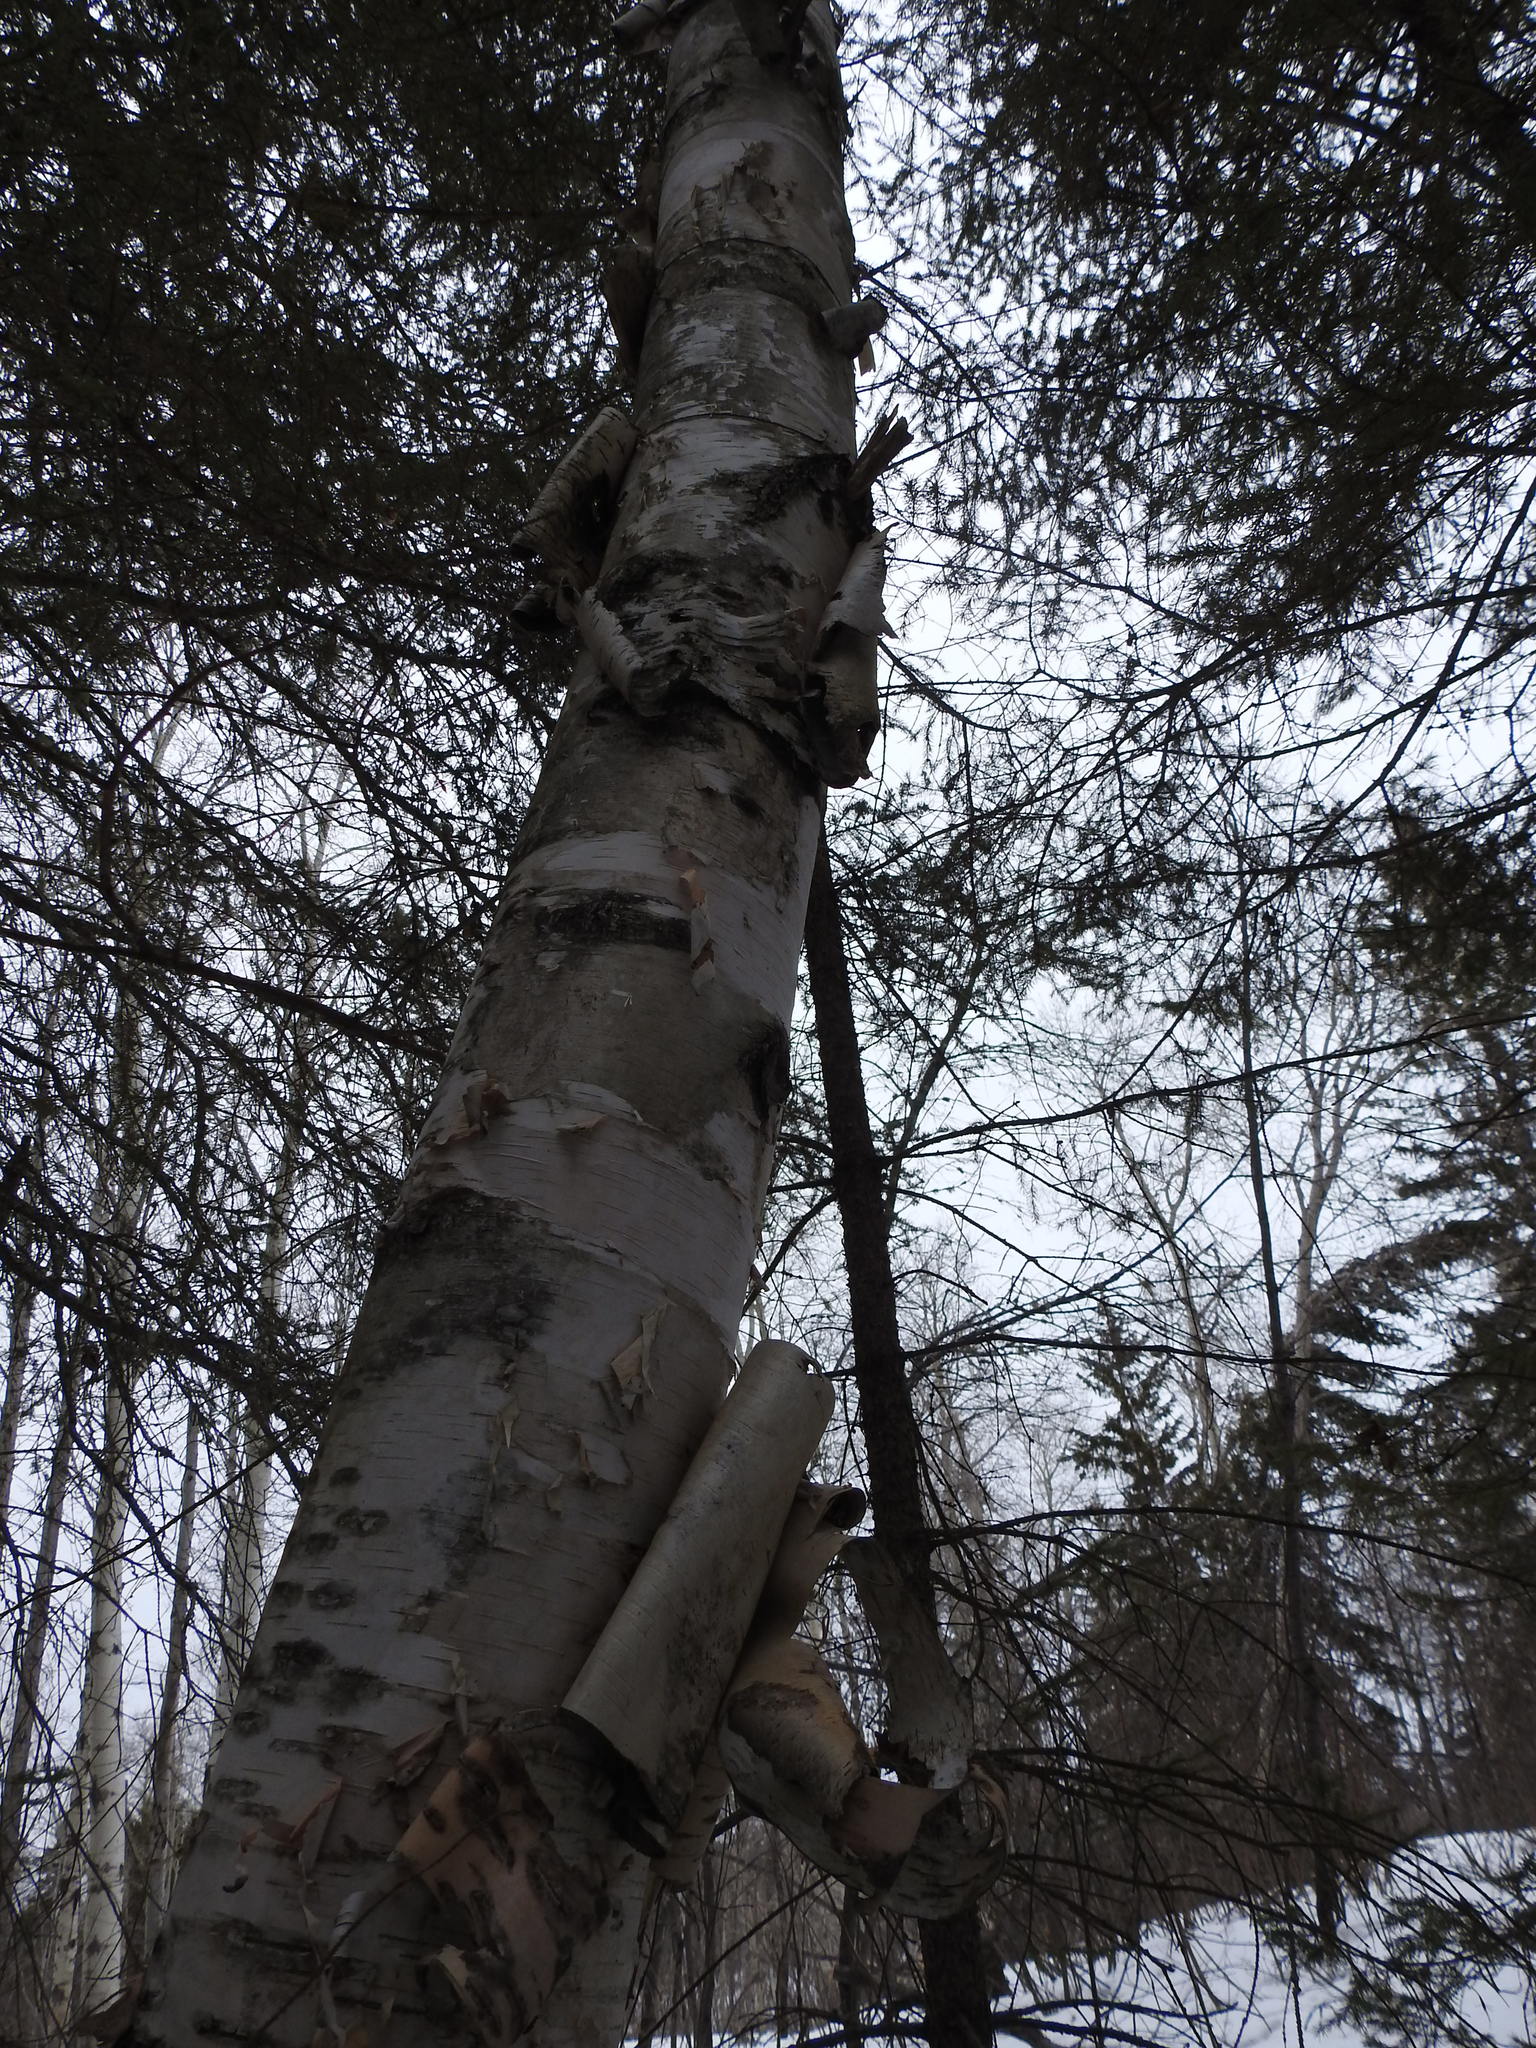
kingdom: Plantae
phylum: Tracheophyta
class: Magnoliopsida
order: Fagales
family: Betulaceae
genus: Betula
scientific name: Betula papyrifera
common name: Paper birch
